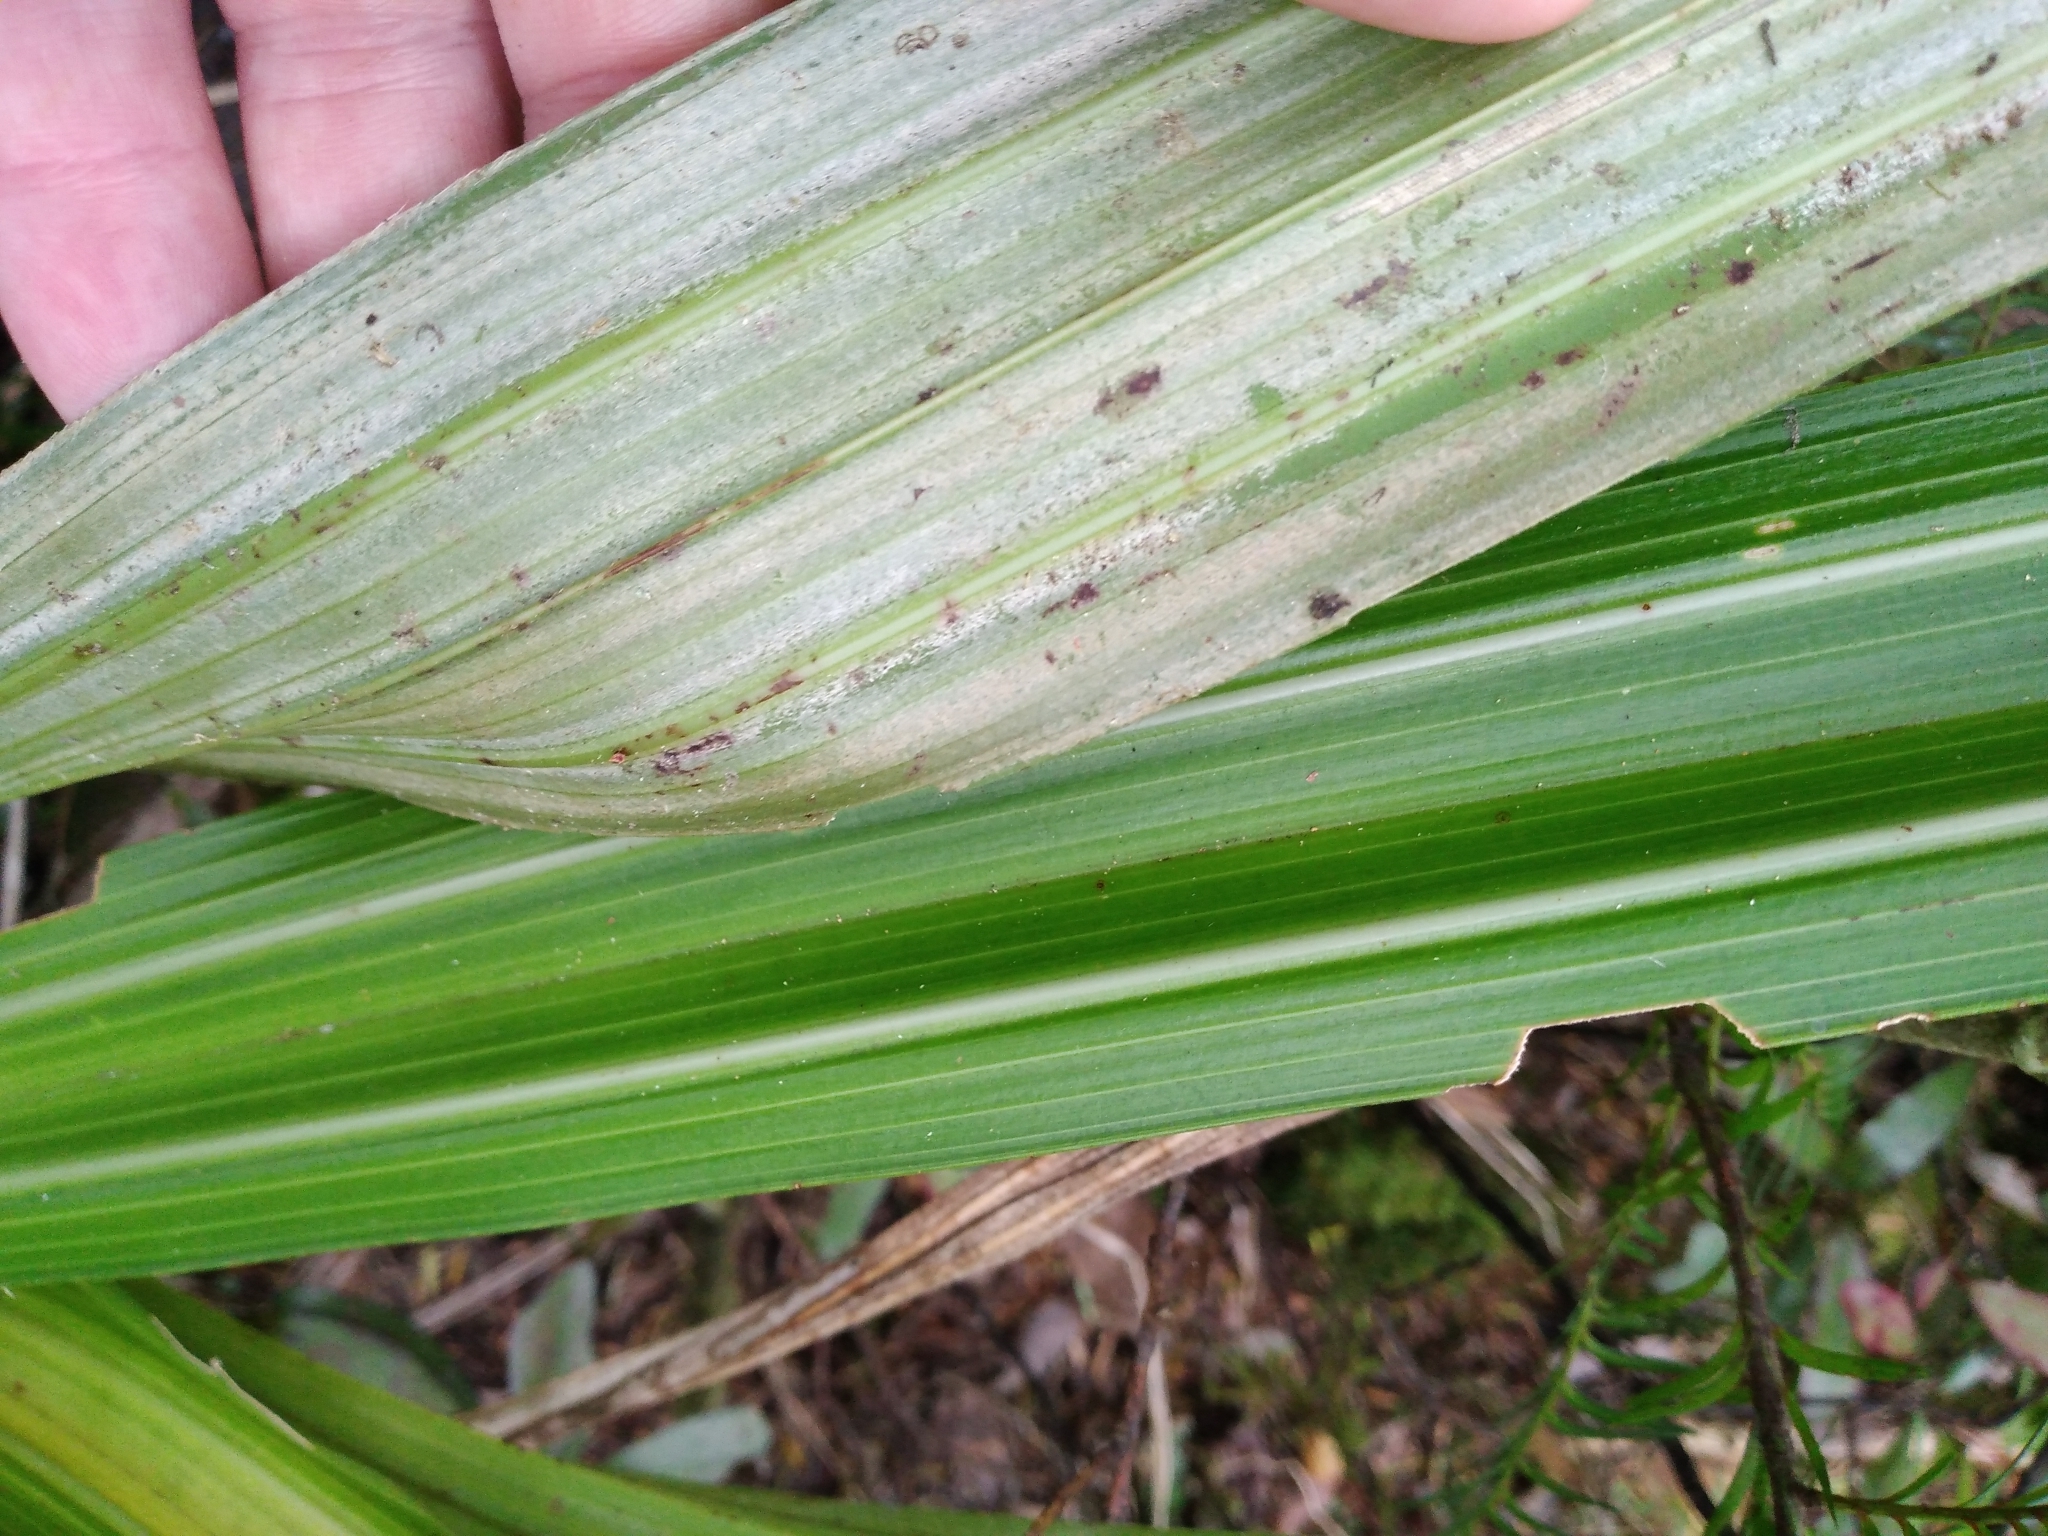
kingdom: Plantae
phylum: Tracheophyta
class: Liliopsida
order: Asparagales
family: Asteliaceae
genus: Astelia
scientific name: Astelia fragrans
